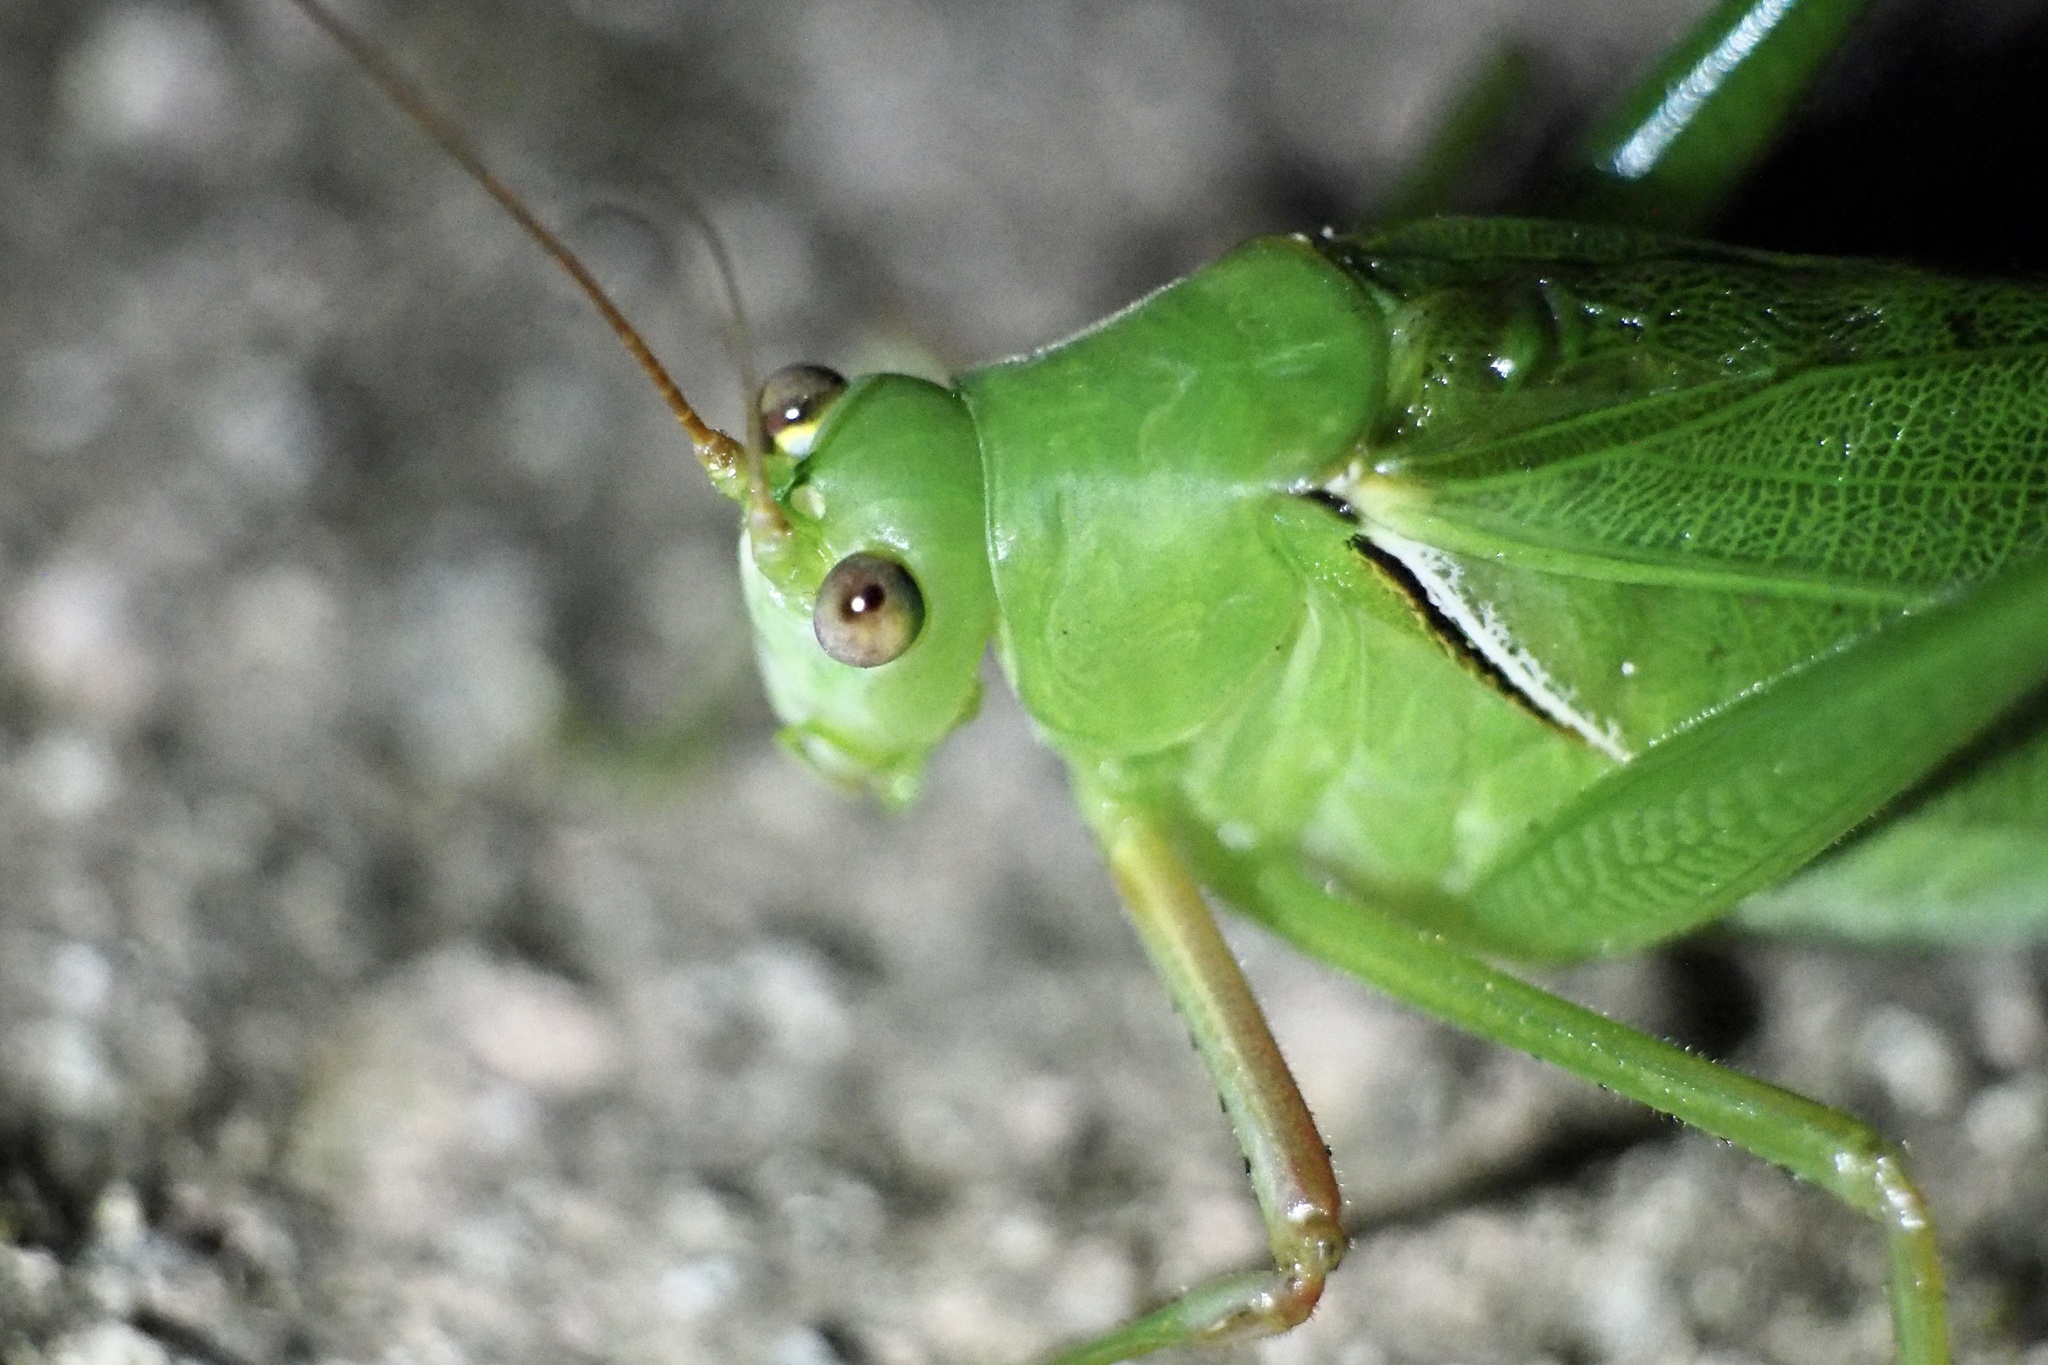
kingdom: Animalia
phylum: Arthropoda
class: Insecta
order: Orthoptera
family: Tettigoniidae
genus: Sinochlora
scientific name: Sinochlora longifissa
